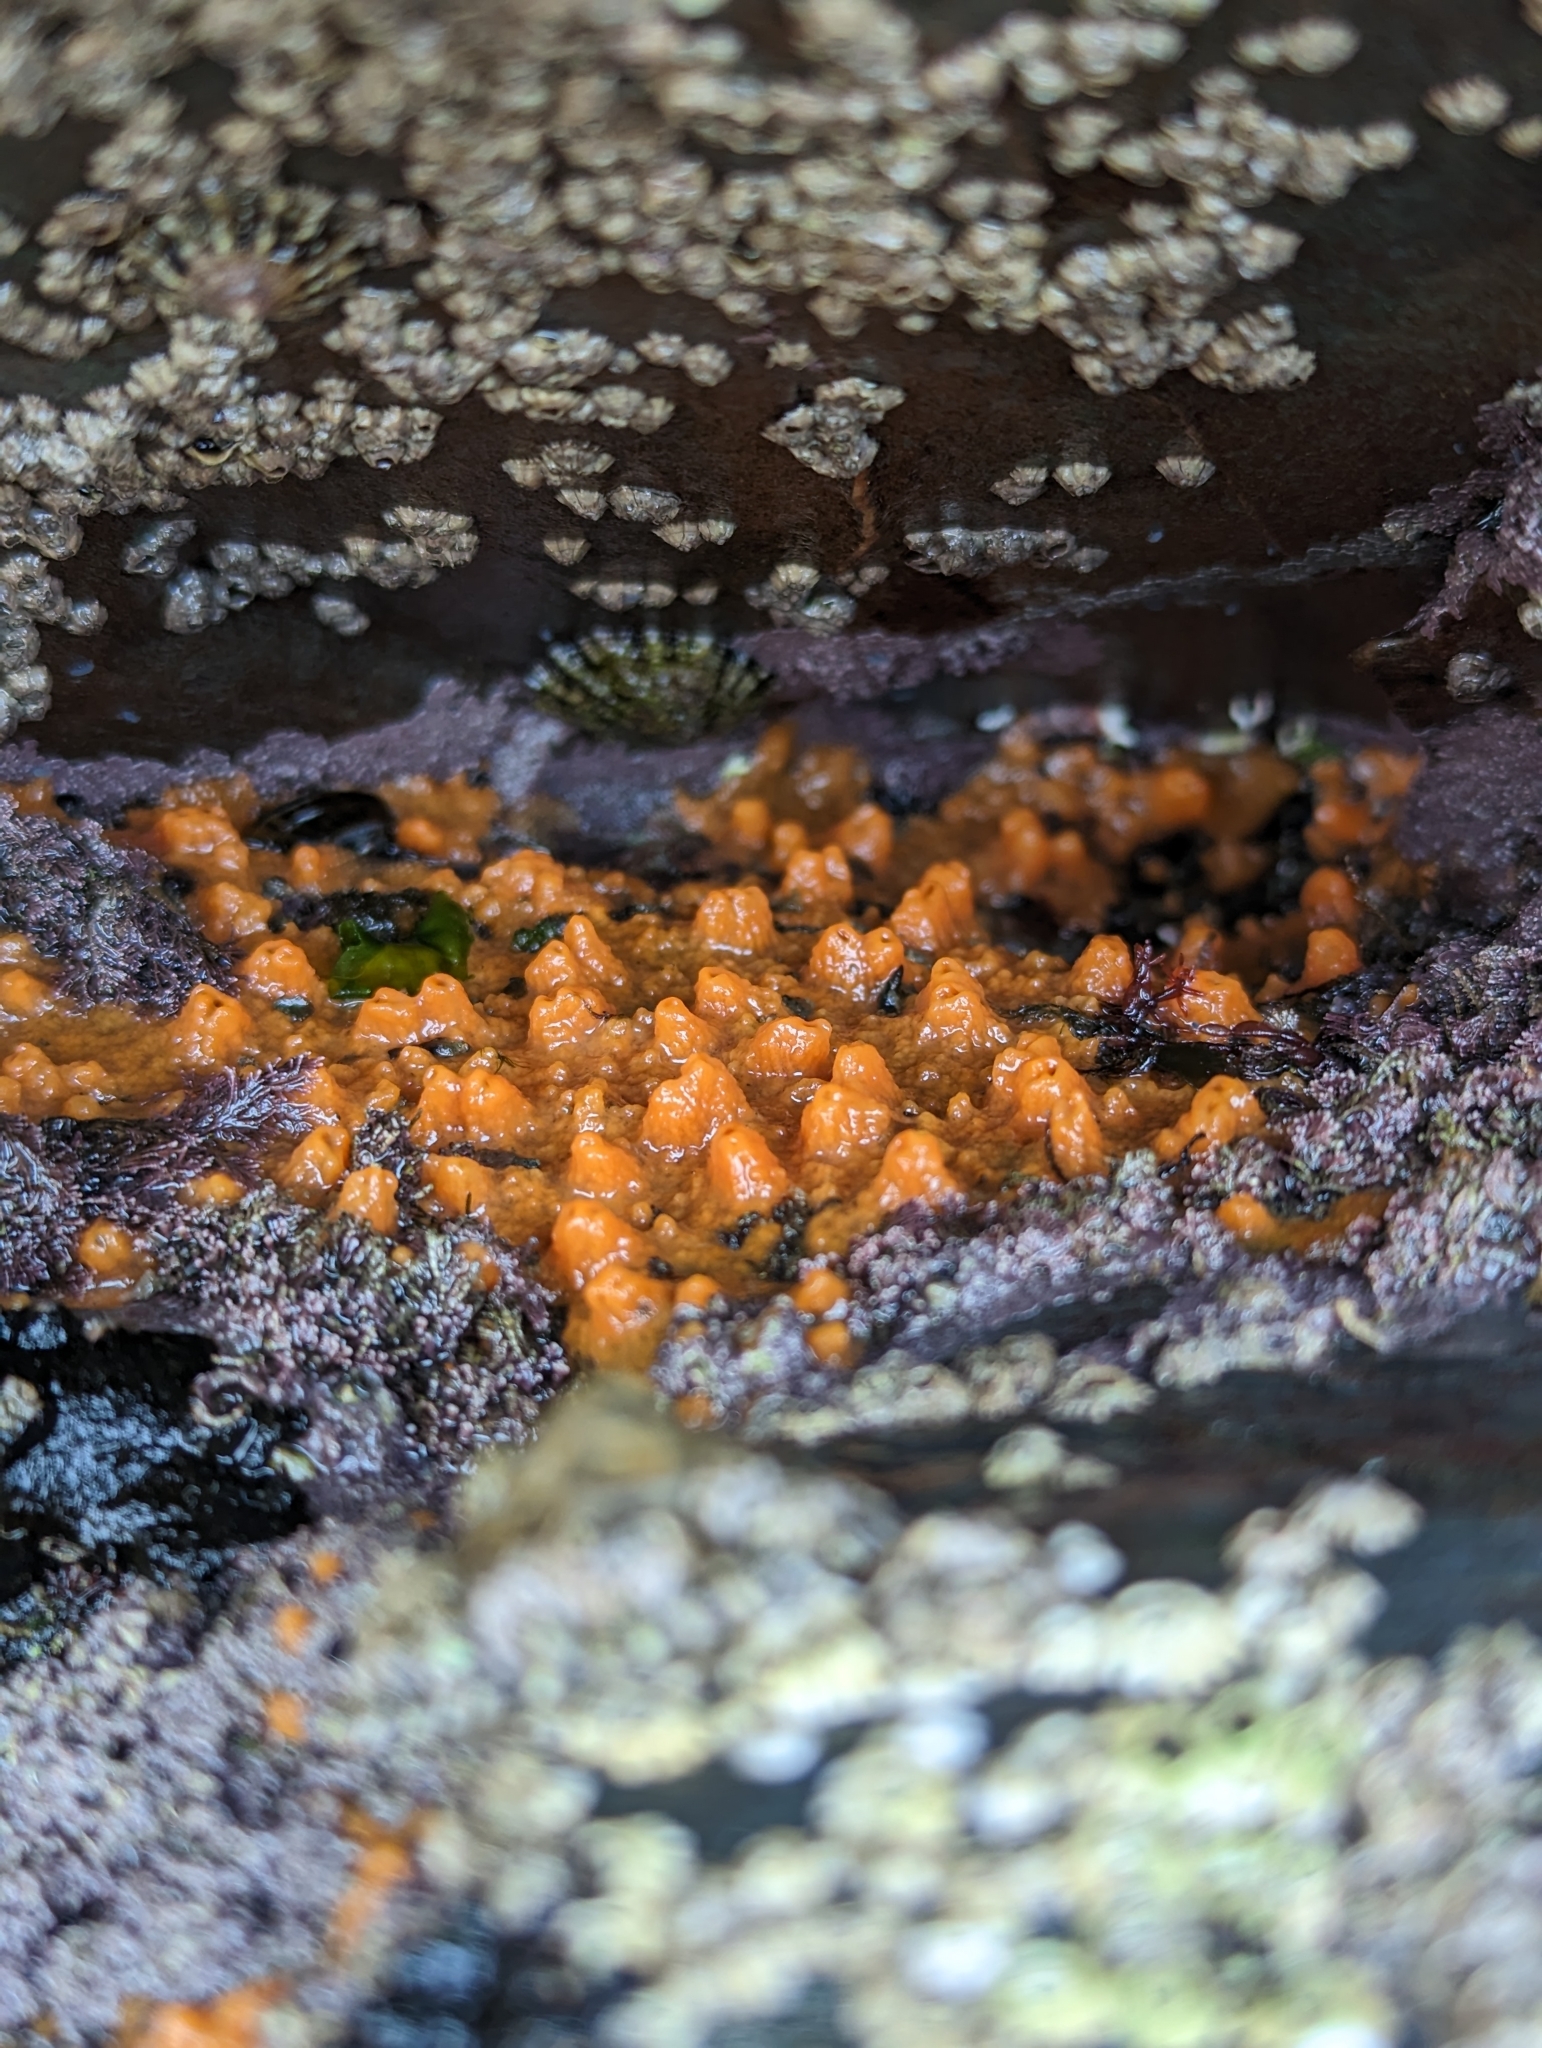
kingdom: Animalia
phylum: Porifera
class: Demospongiae
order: Suberitida
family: Halichondriidae
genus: Hymeniacidon
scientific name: Hymeniacidon perlevis
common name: Crumb-of-bread sponge
